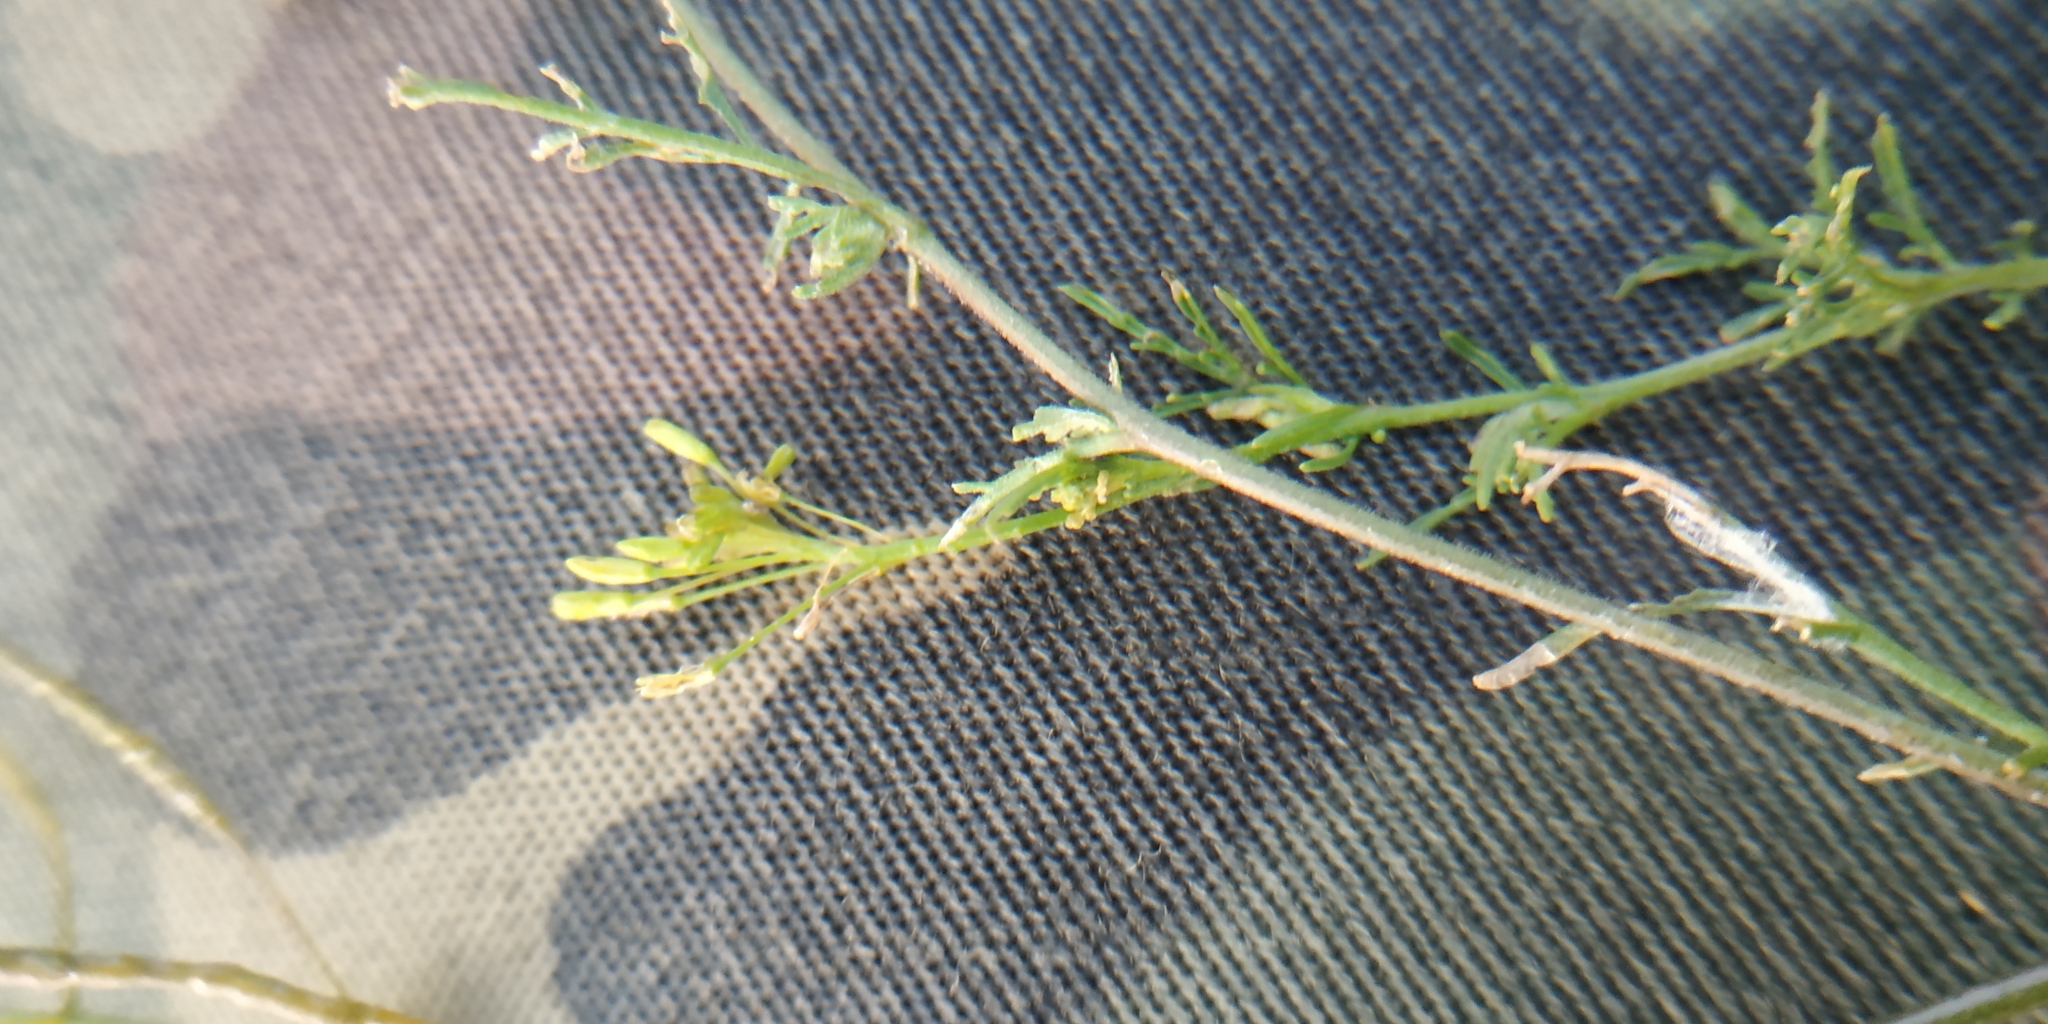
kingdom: Plantae
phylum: Tracheophyta
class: Magnoliopsida
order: Brassicales
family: Brassicaceae
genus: Descurainia
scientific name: Descurainia sophia
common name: Flixweed
